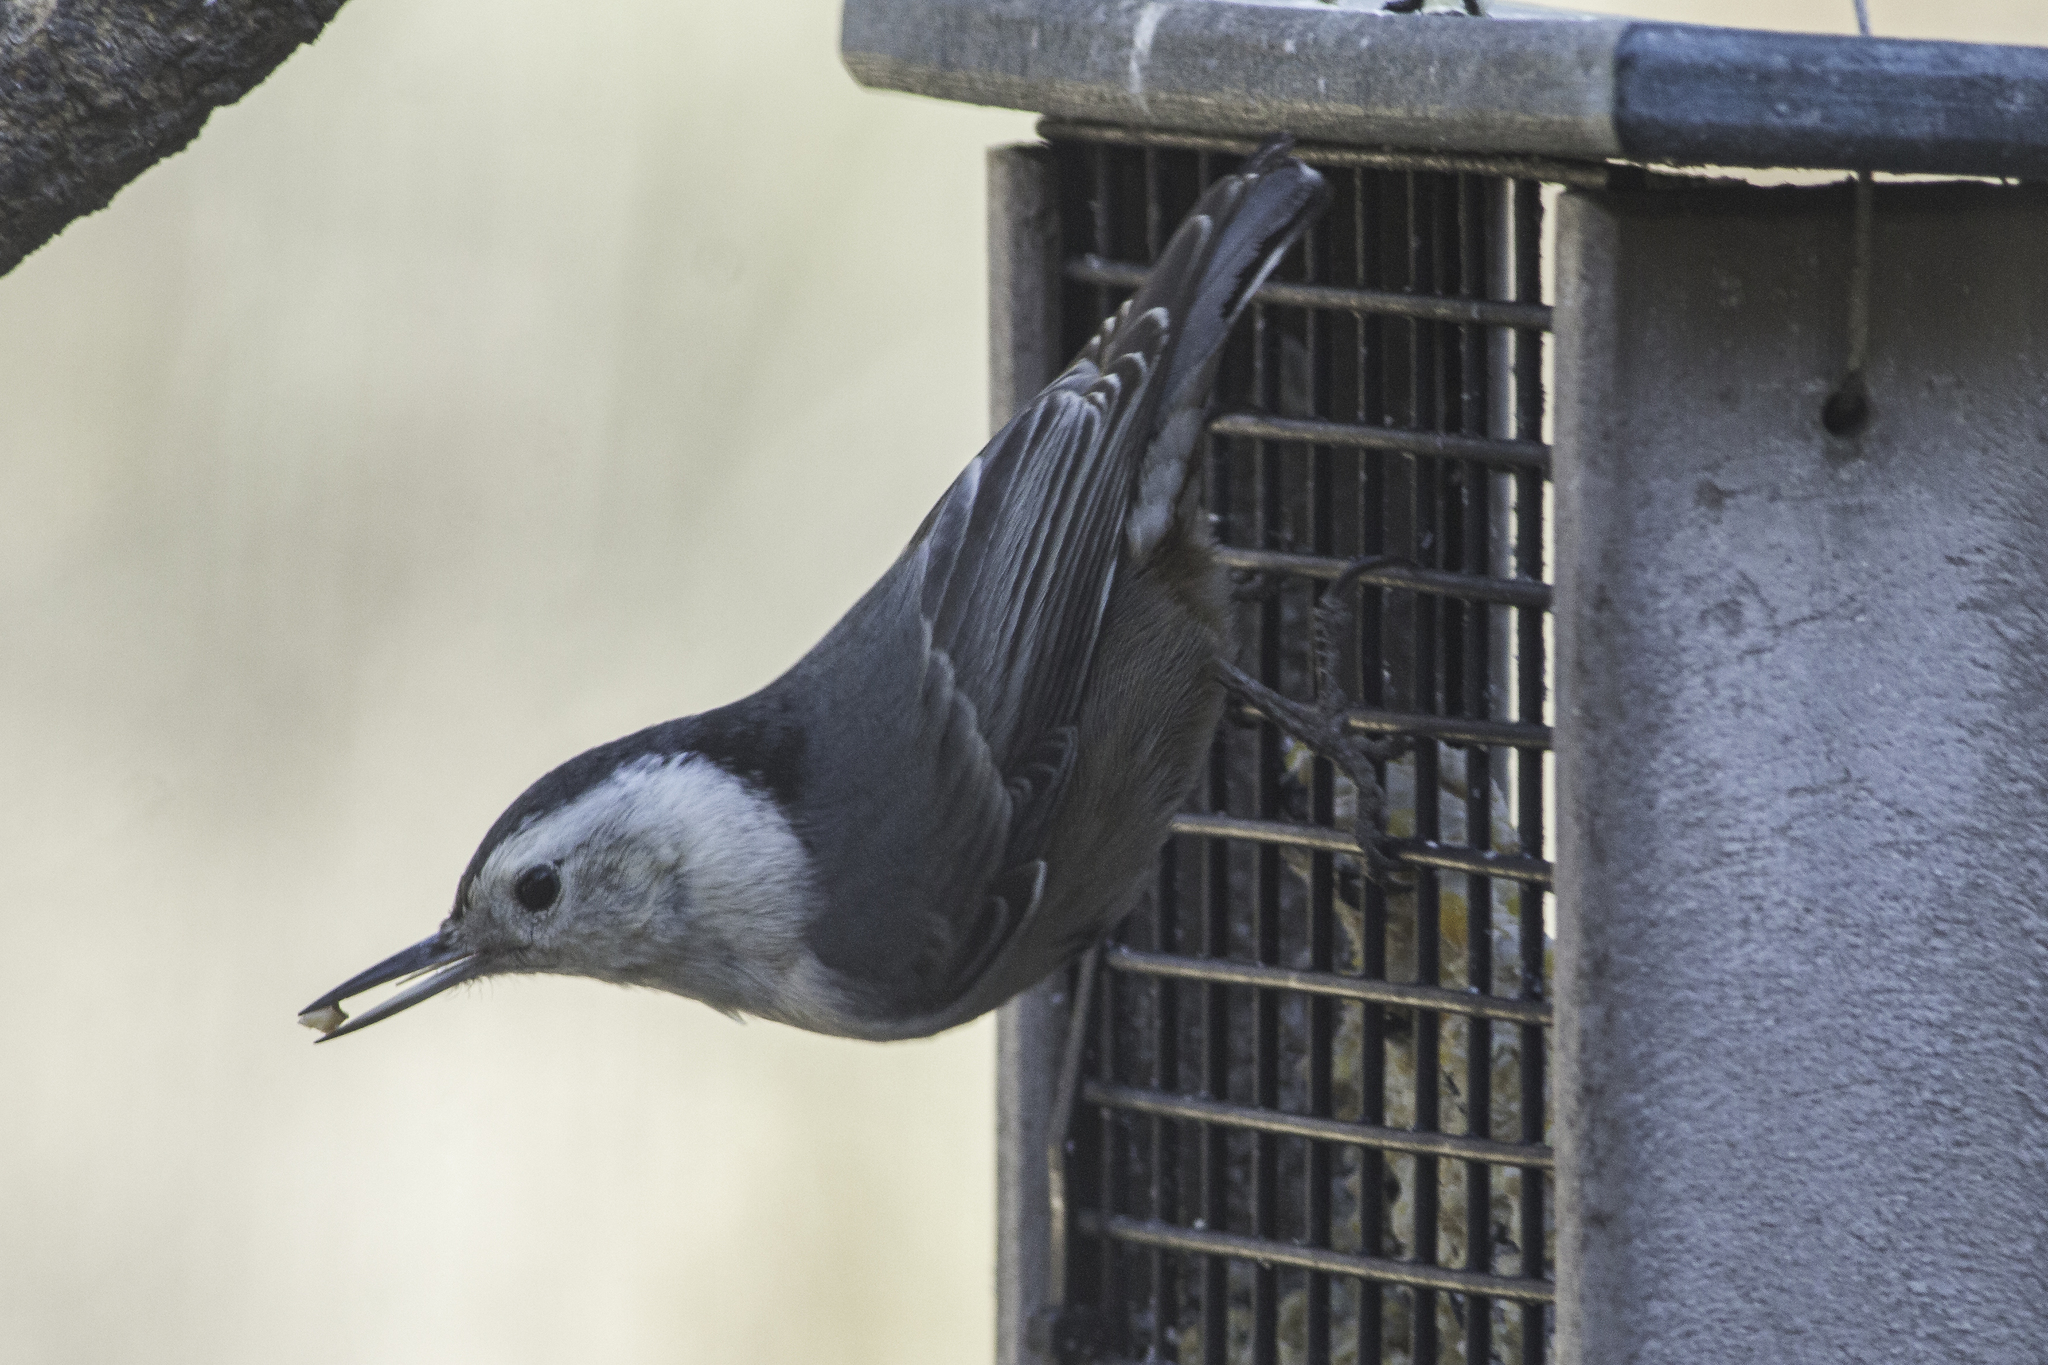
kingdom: Animalia
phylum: Chordata
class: Aves
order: Passeriformes
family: Sittidae
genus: Sitta
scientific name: Sitta carolinensis
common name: White-breasted nuthatch
